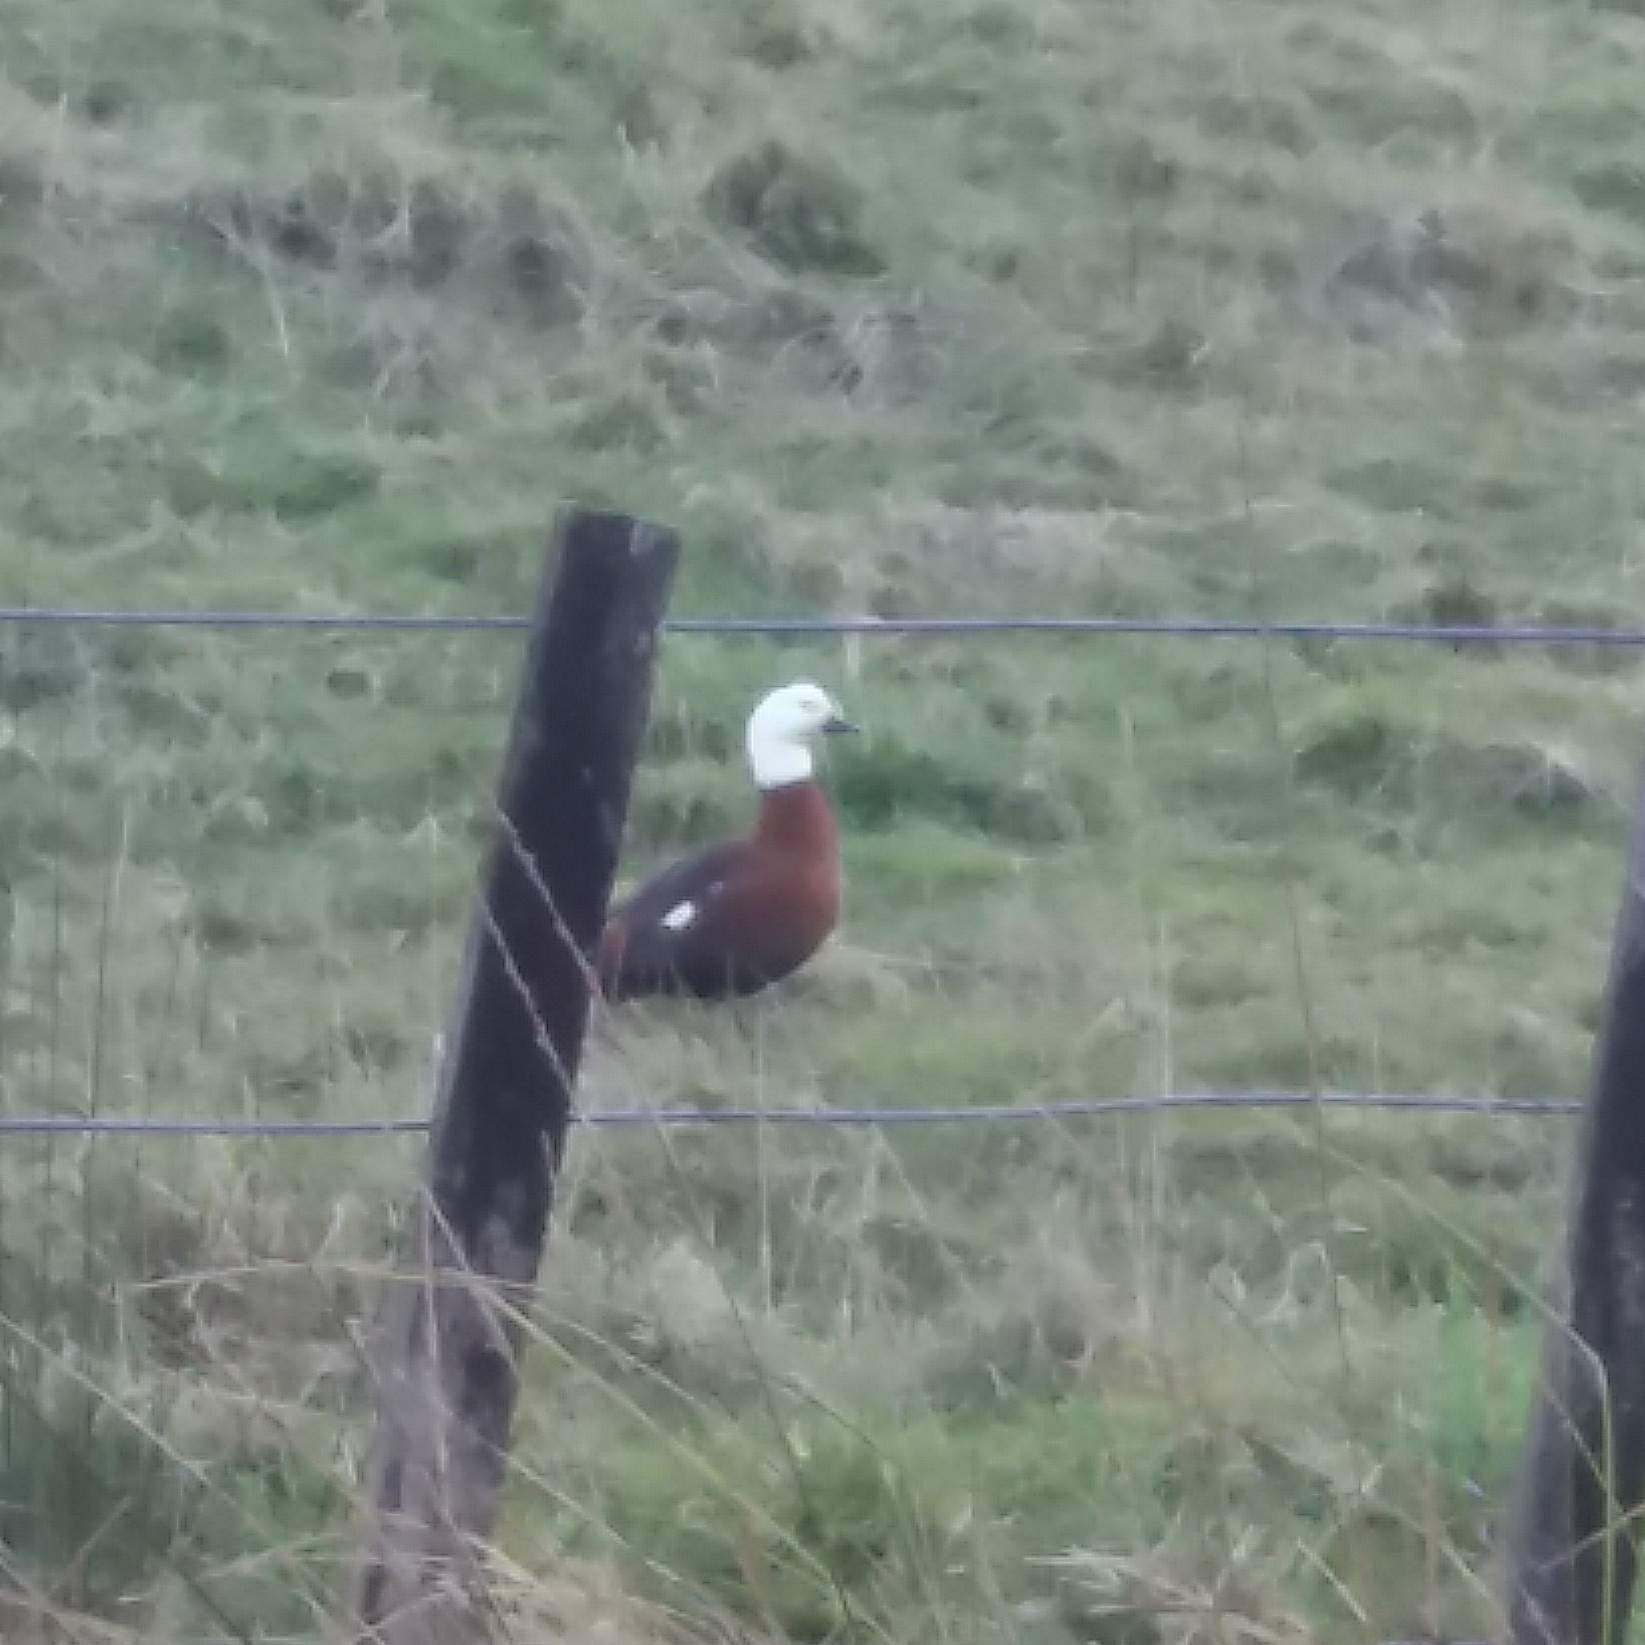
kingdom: Animalia
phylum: Chordata
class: Aves
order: Anseriformes
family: Anatidae
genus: Tadorna
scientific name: Tadorna variegata
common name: Paradise shelduck
